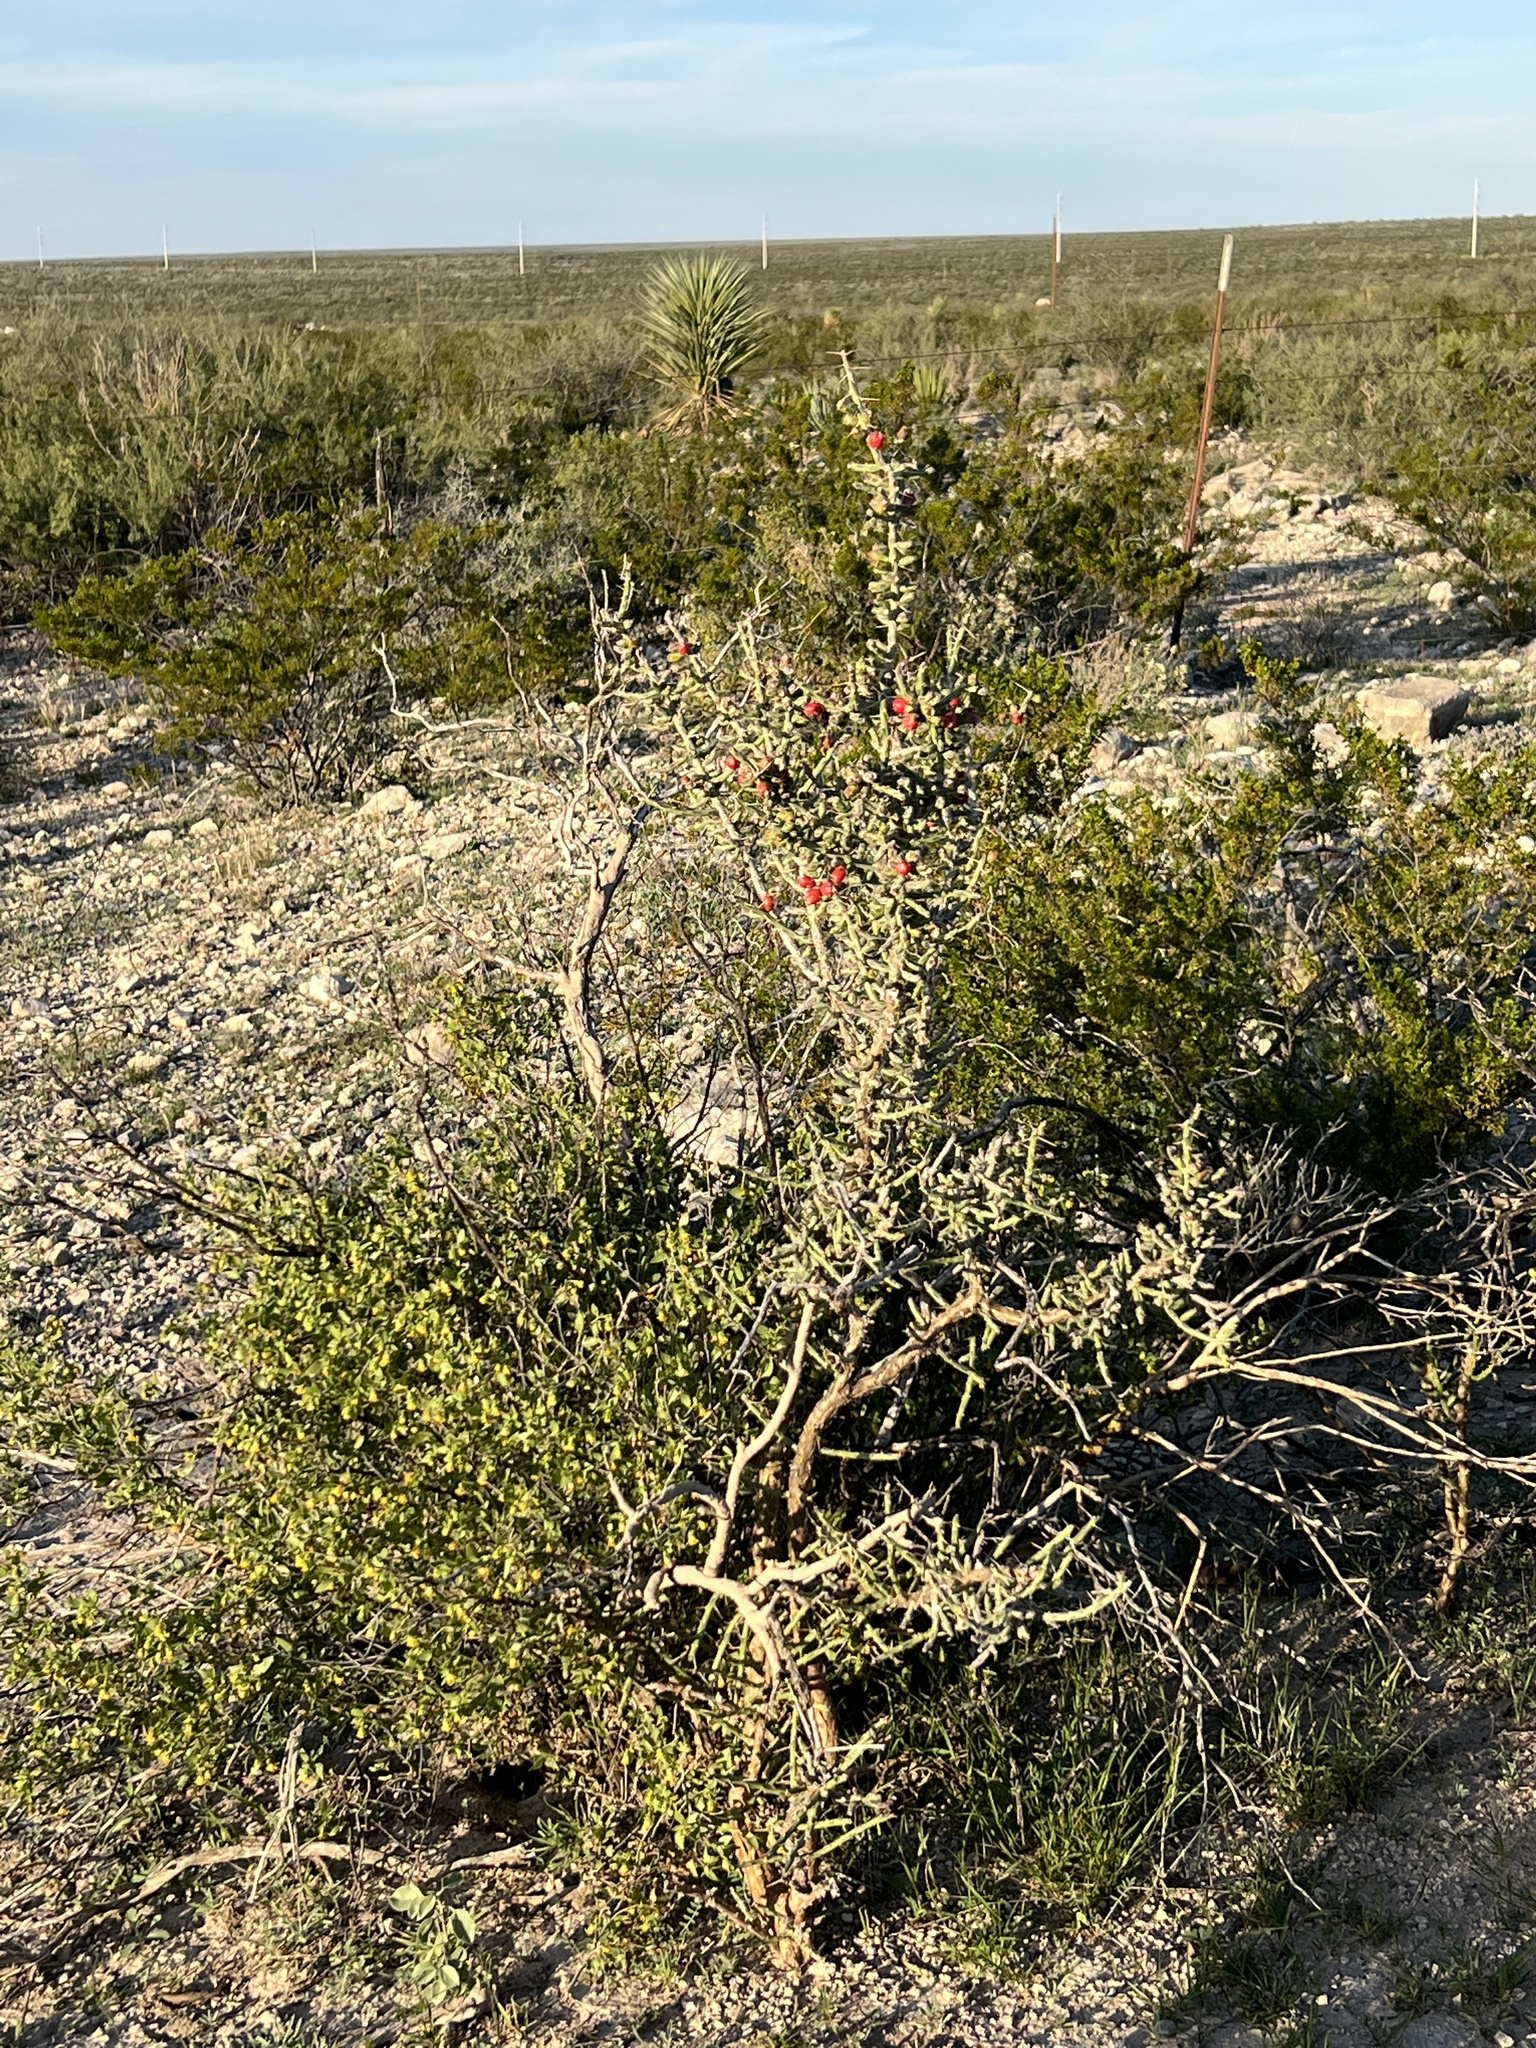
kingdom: Plantae
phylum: Tracheophyta
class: Magnoliopsida
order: Caryophyllales
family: Cactaceae
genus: Cylindropuntia
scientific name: Cylindropuntia leptocaulis
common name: Christmas cactus
